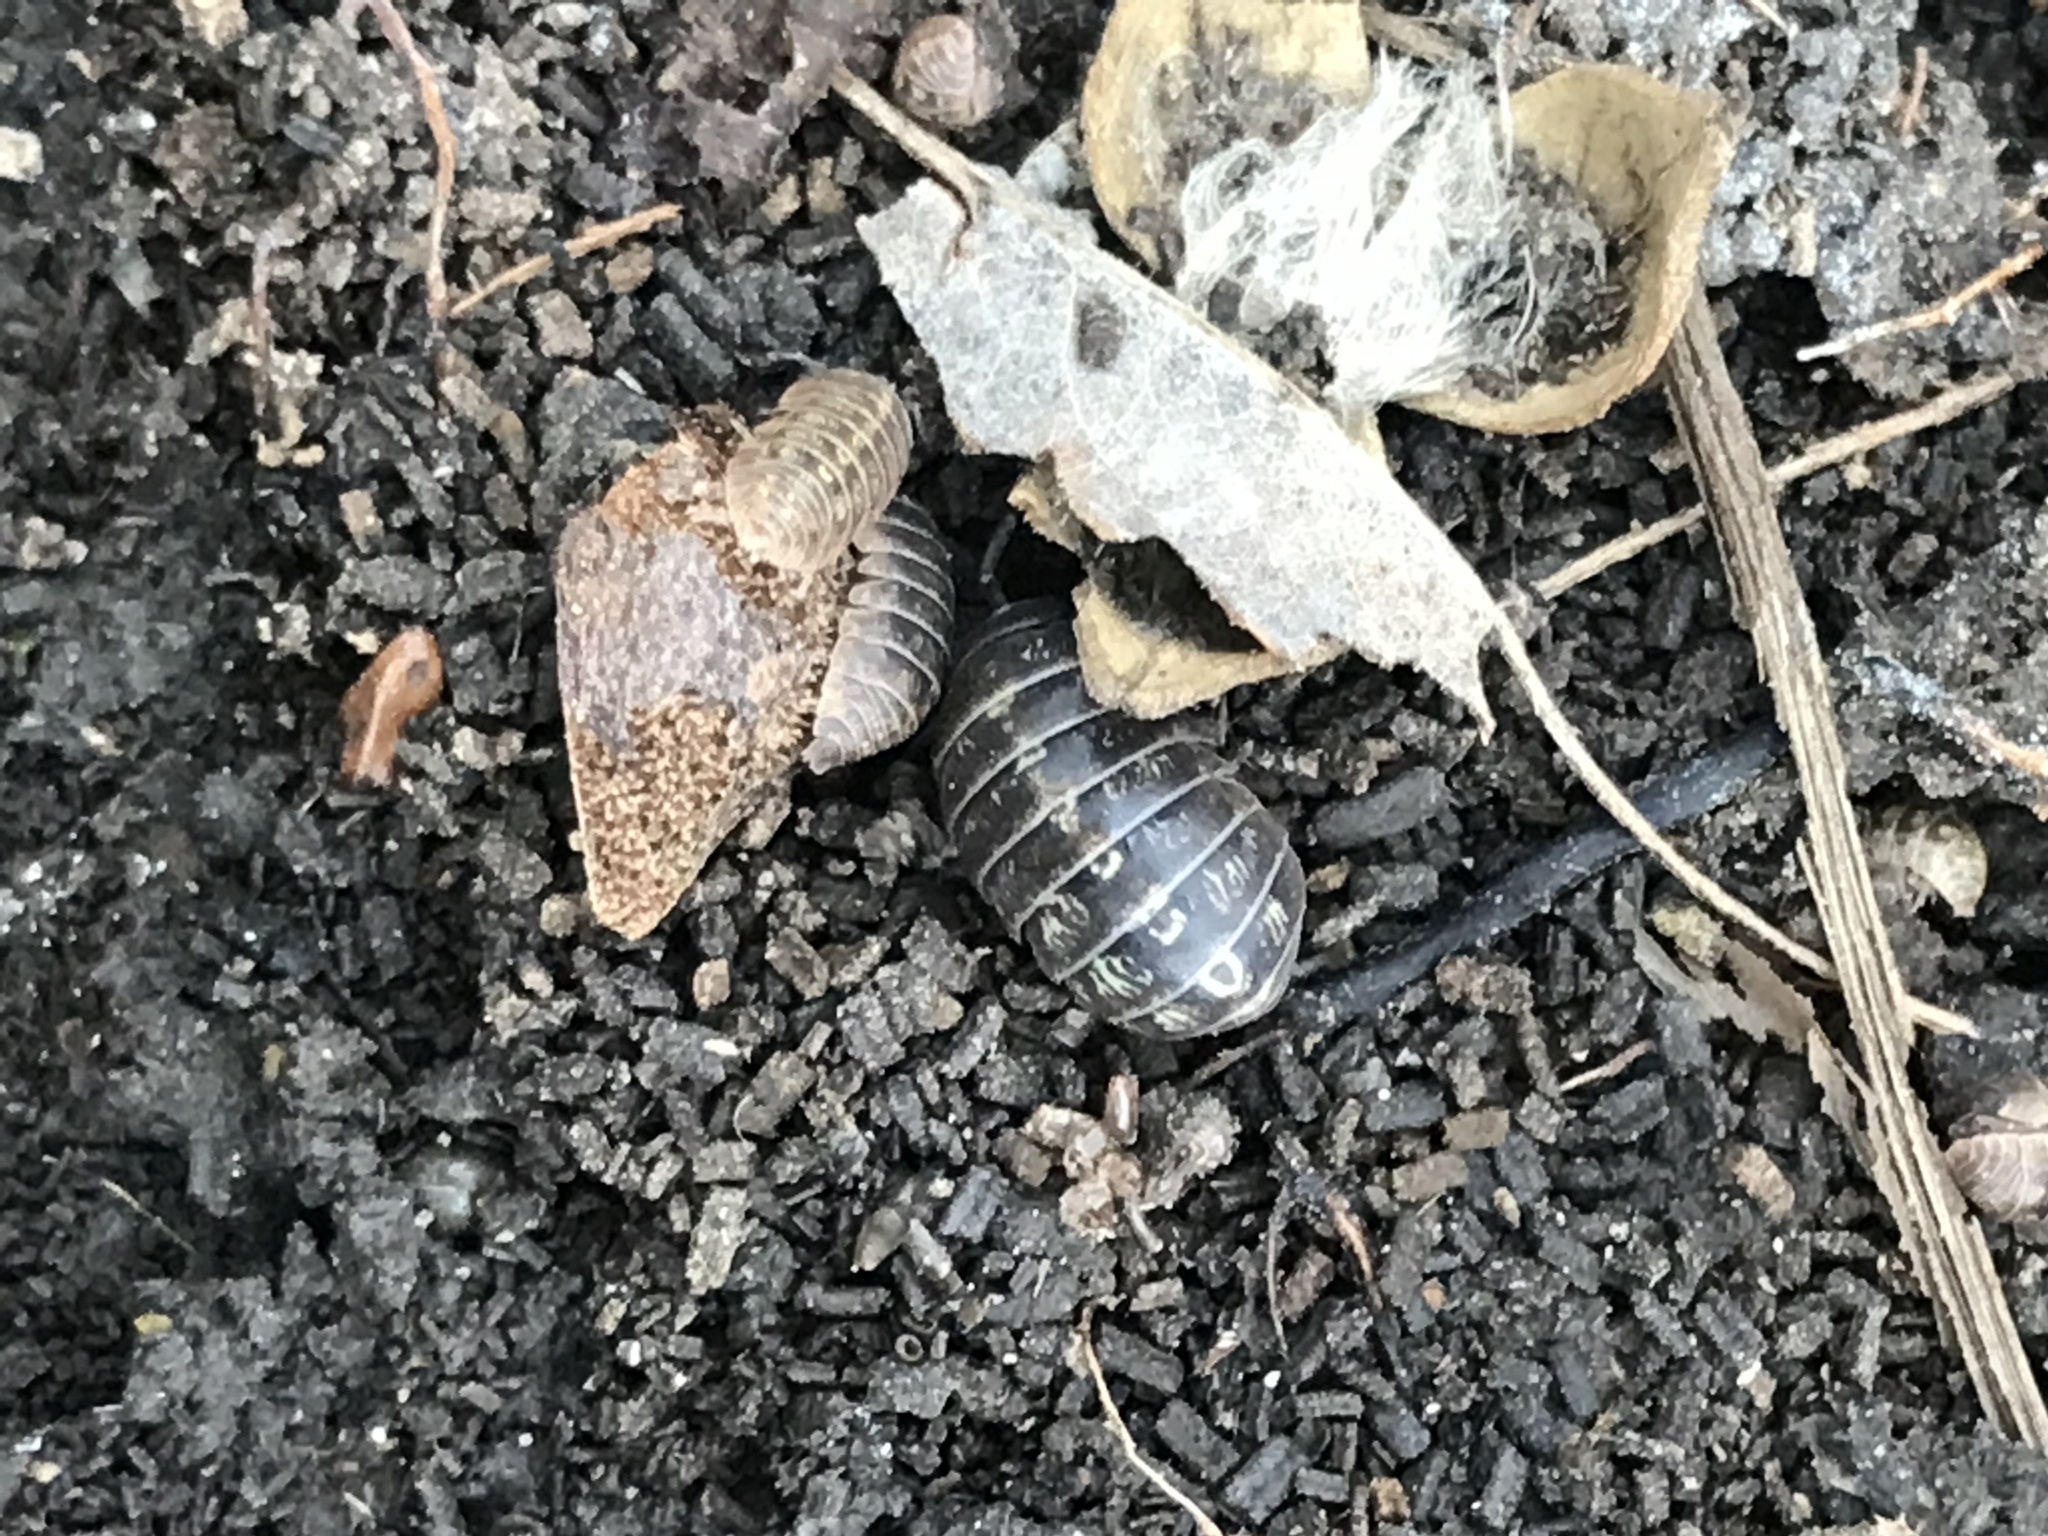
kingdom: Animalia
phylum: Arthropoda
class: Malacostraca
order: Isopoda
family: Armadillidiidae
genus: Armadillidium
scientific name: Armadillidium vulgare
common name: Common pill woodlouse
